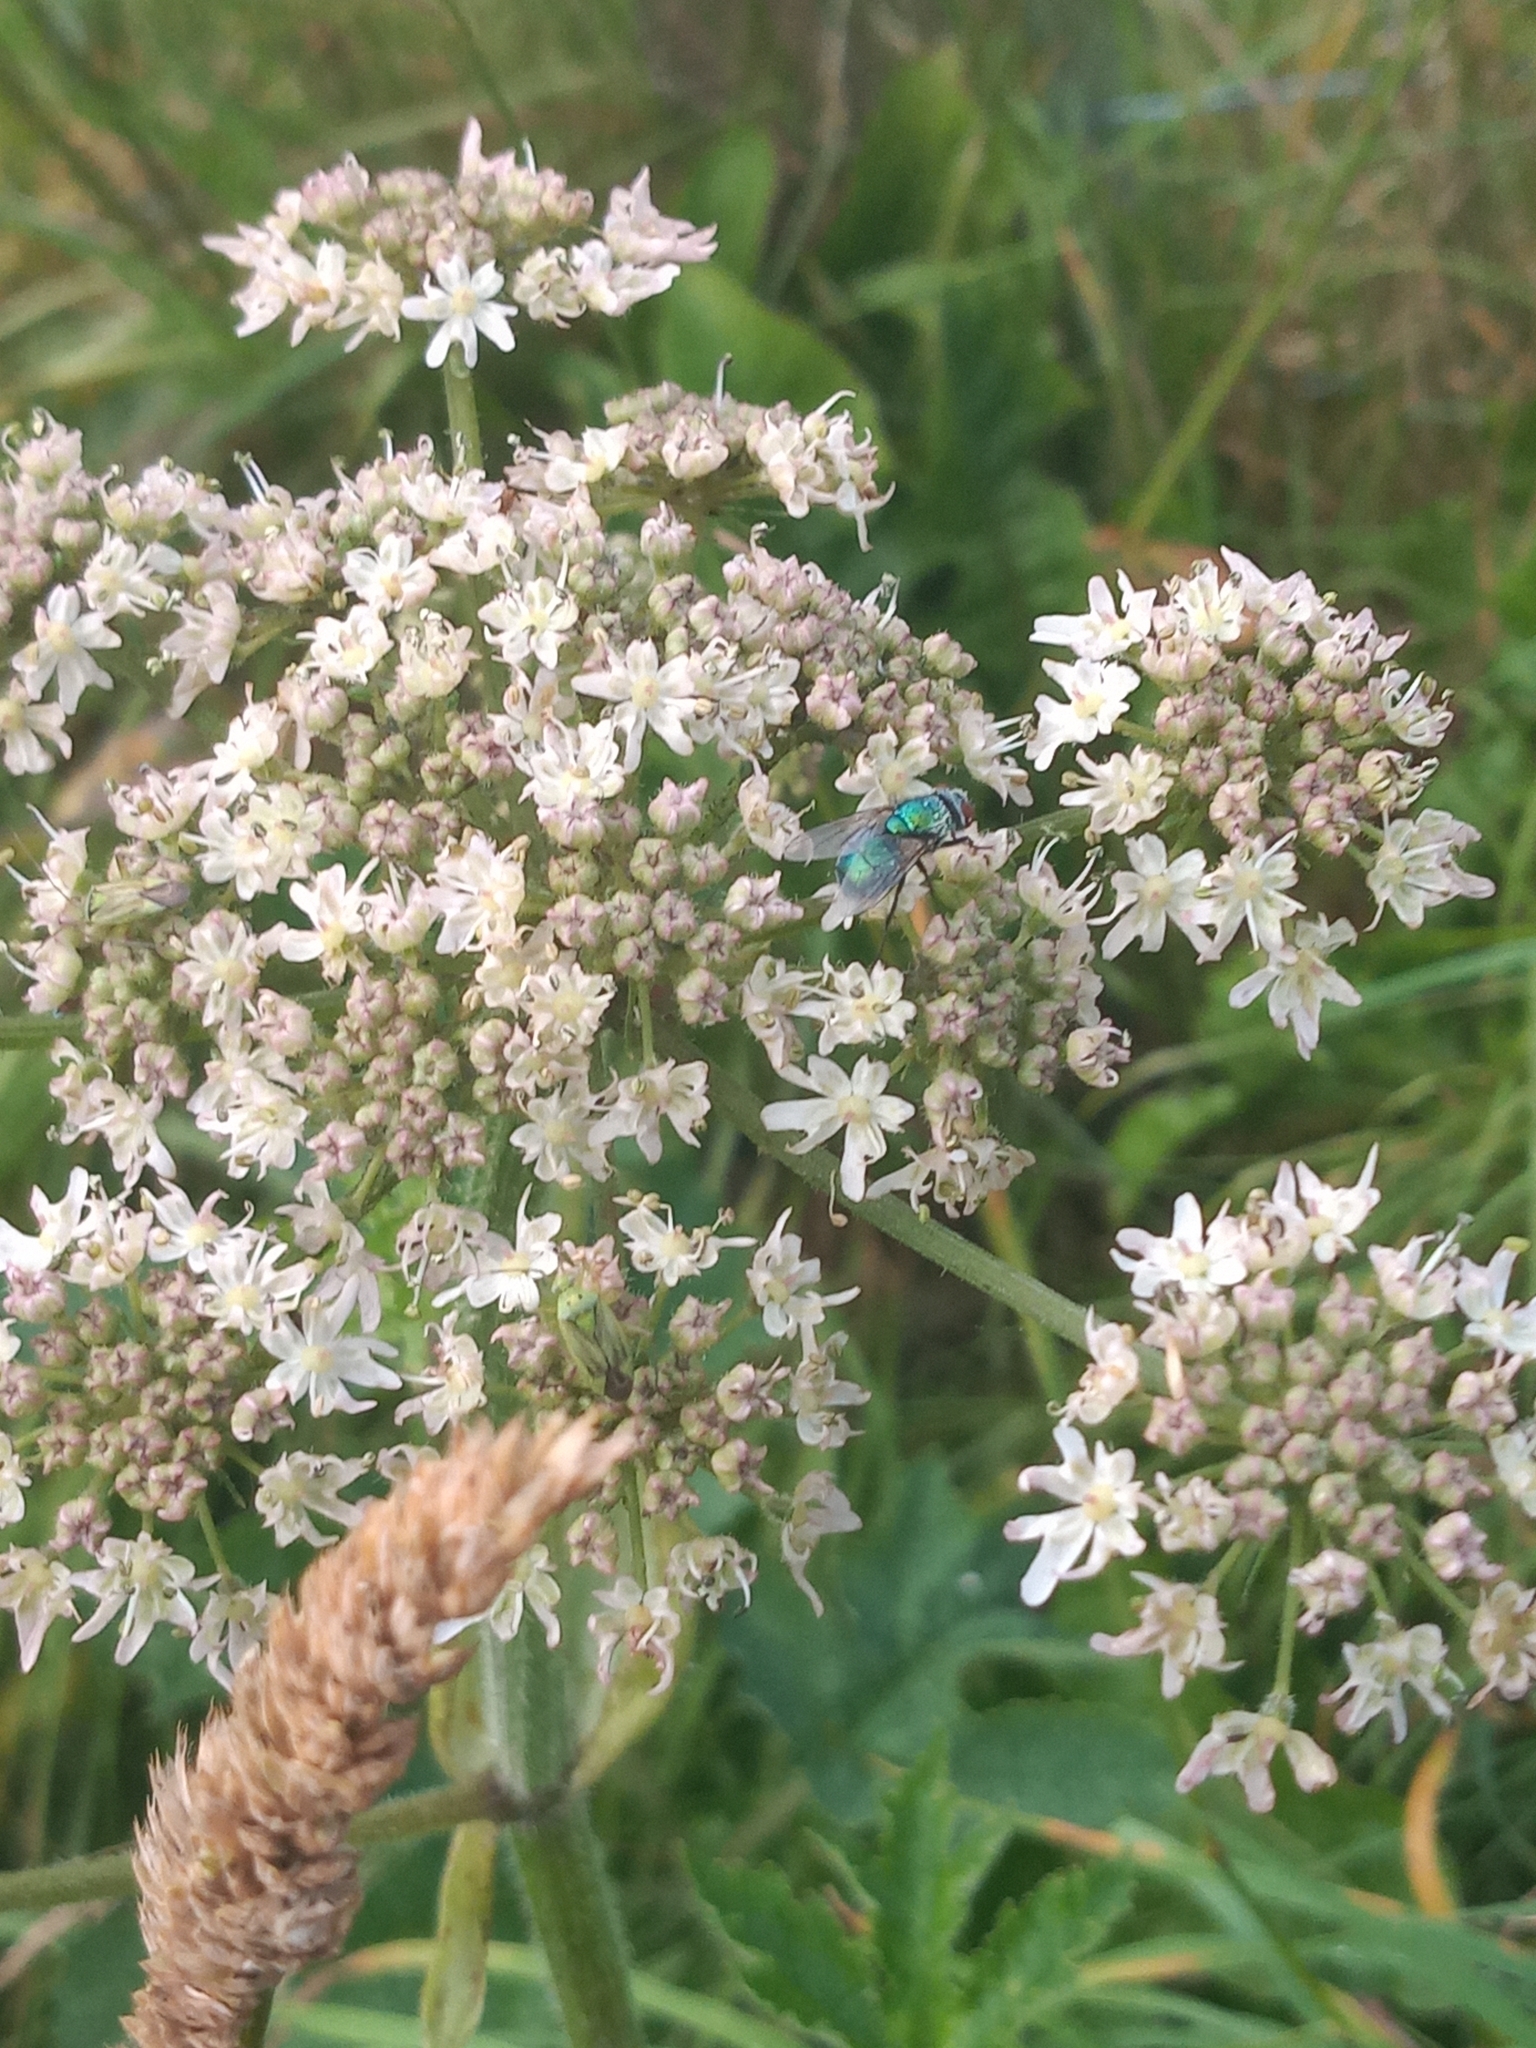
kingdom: Plantae
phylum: Tracheophyta
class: Magnoliopsida
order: Apiales
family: Apiaceae
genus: Heracleum
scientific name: Heracleum sphondylium
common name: Hogweed
